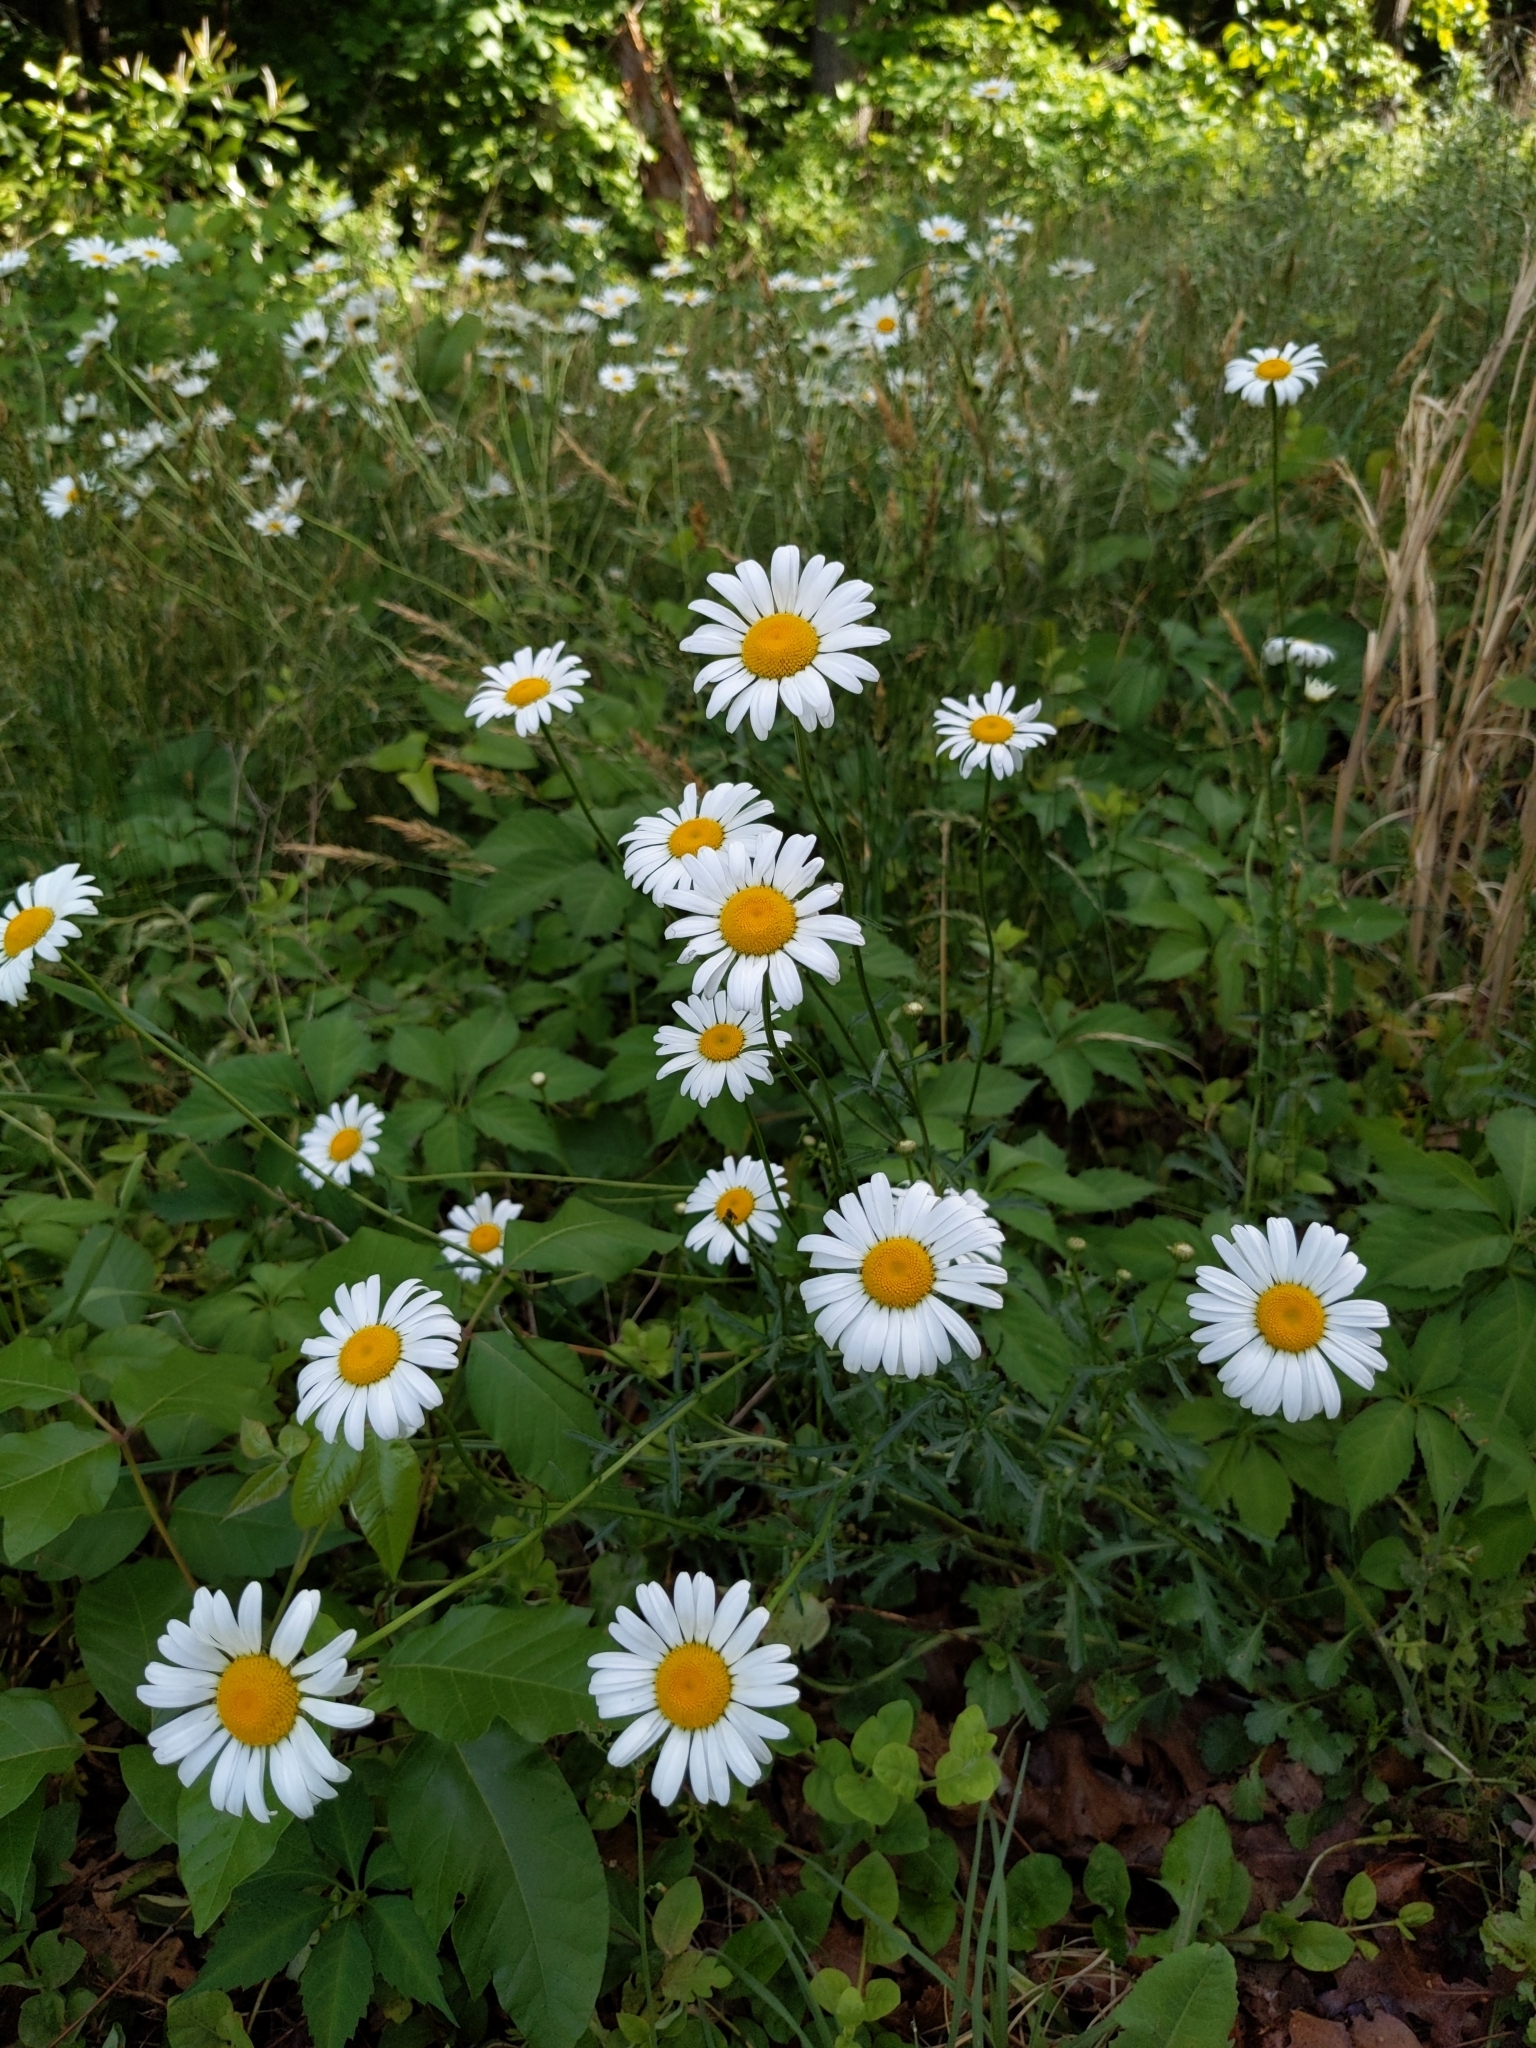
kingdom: Plantae
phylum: Tracheophyta
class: Magnoliopsida
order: Asterales
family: Asteraceae
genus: Leucanthemum
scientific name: Leucanthemum vulgare
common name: Oxeye daisy
